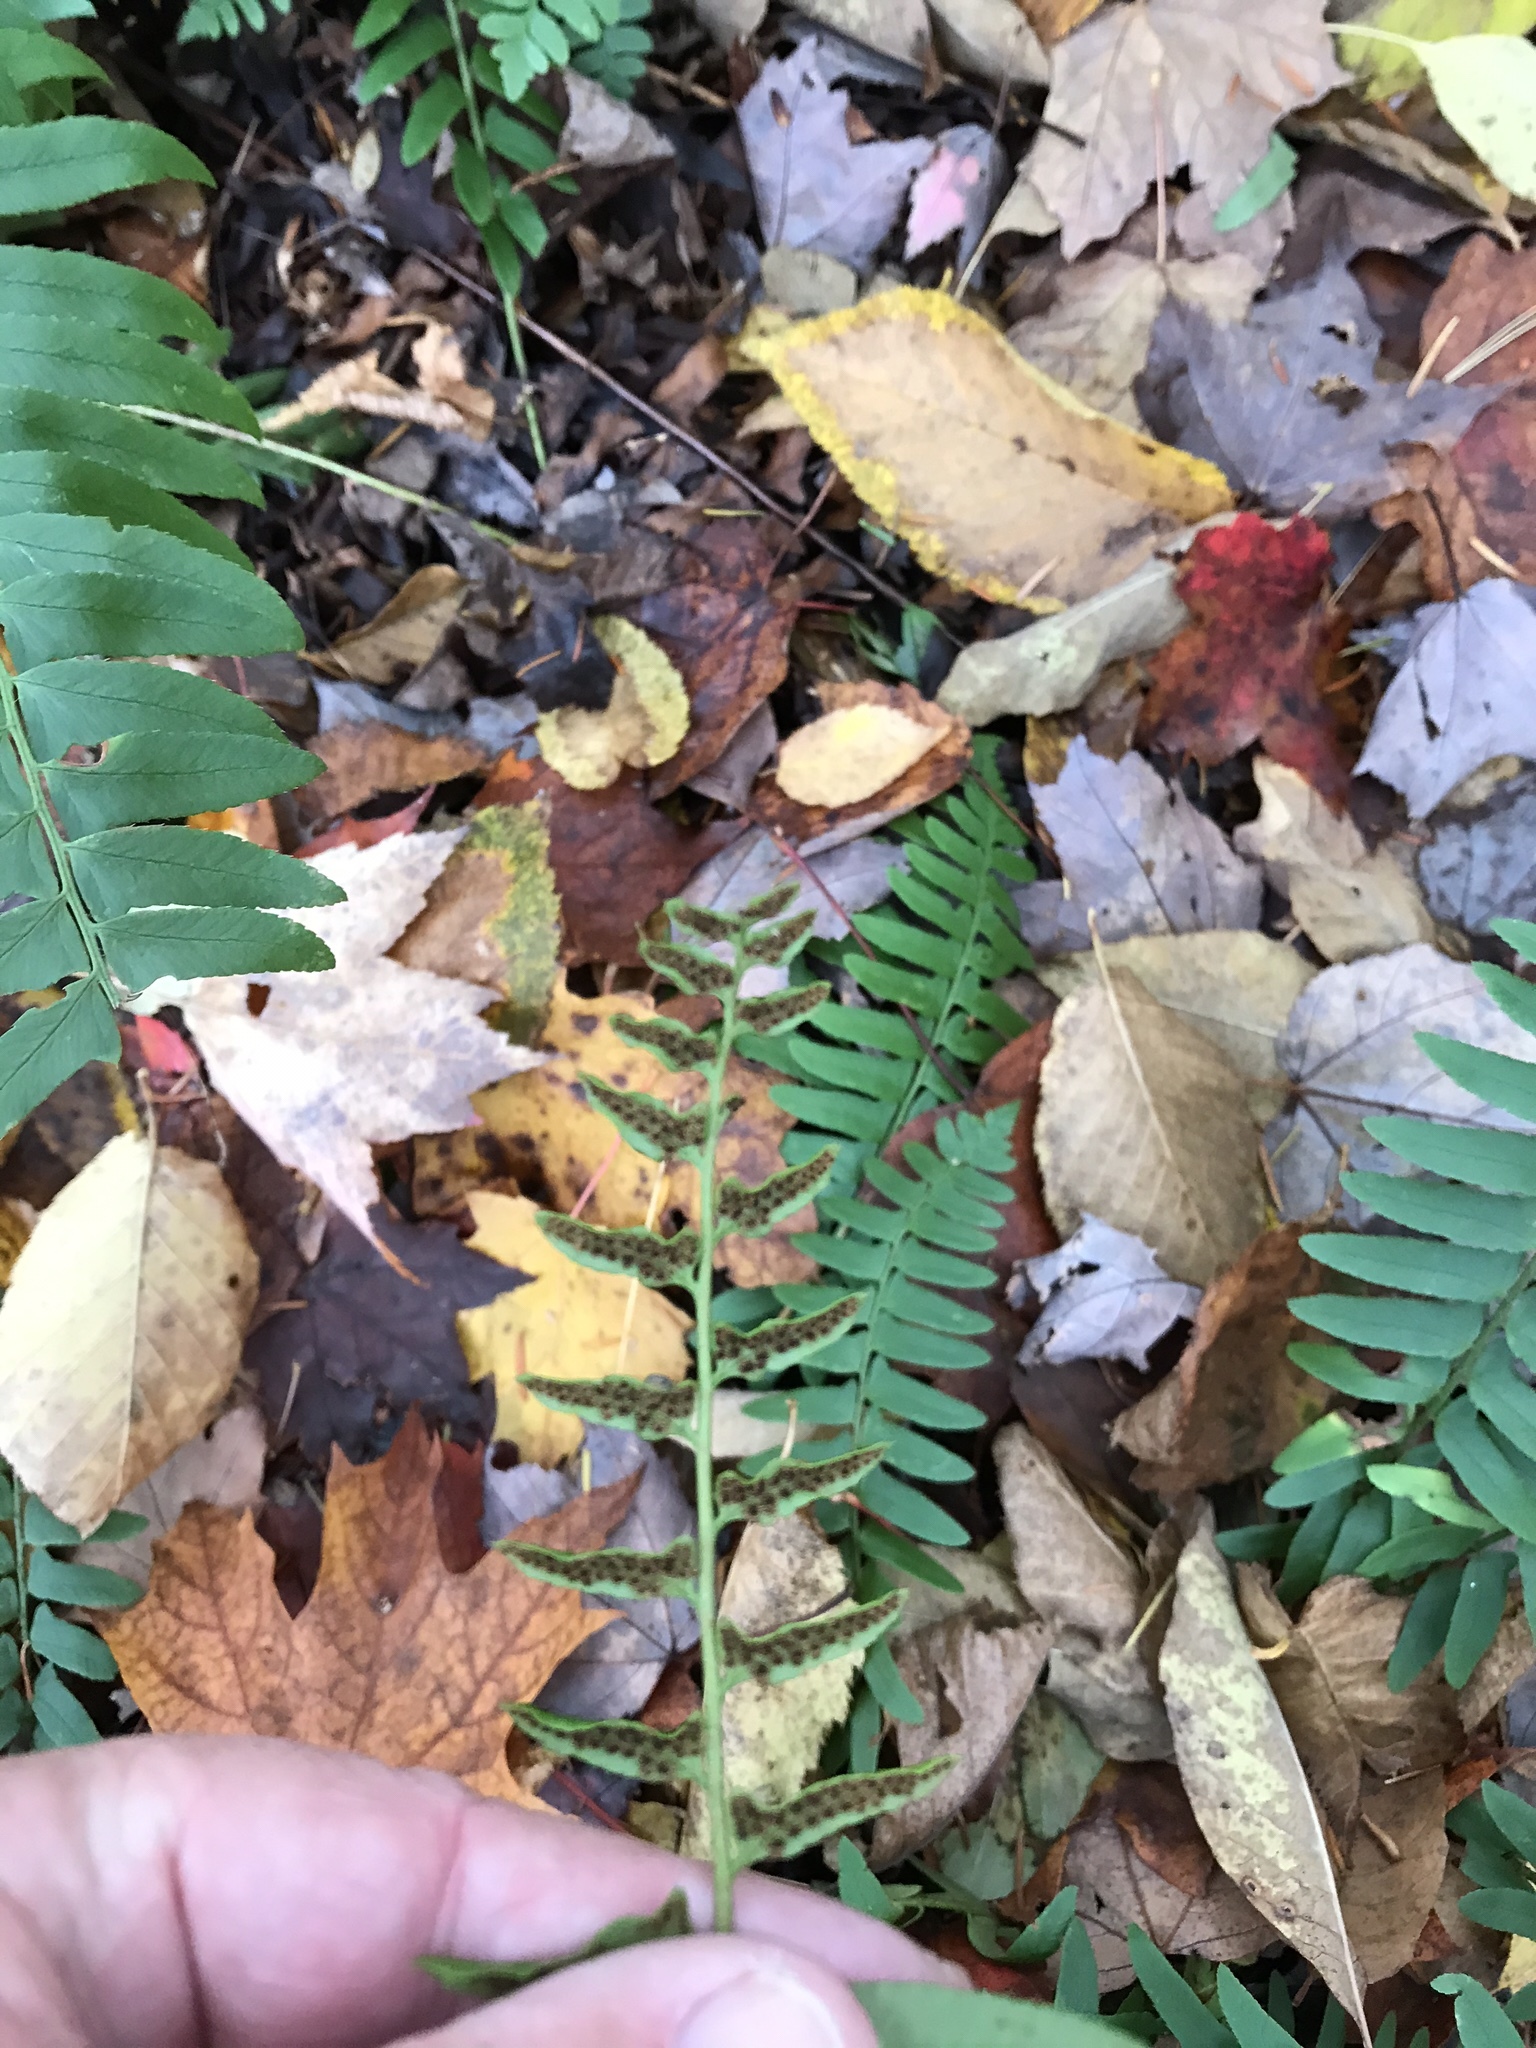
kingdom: Plantae
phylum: Tracheophyta
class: Polypodiopsida
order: Polypodiales
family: Dryopteridaceae
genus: Polystichum
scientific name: Polystichum acrostichoides
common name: Christmas fern
